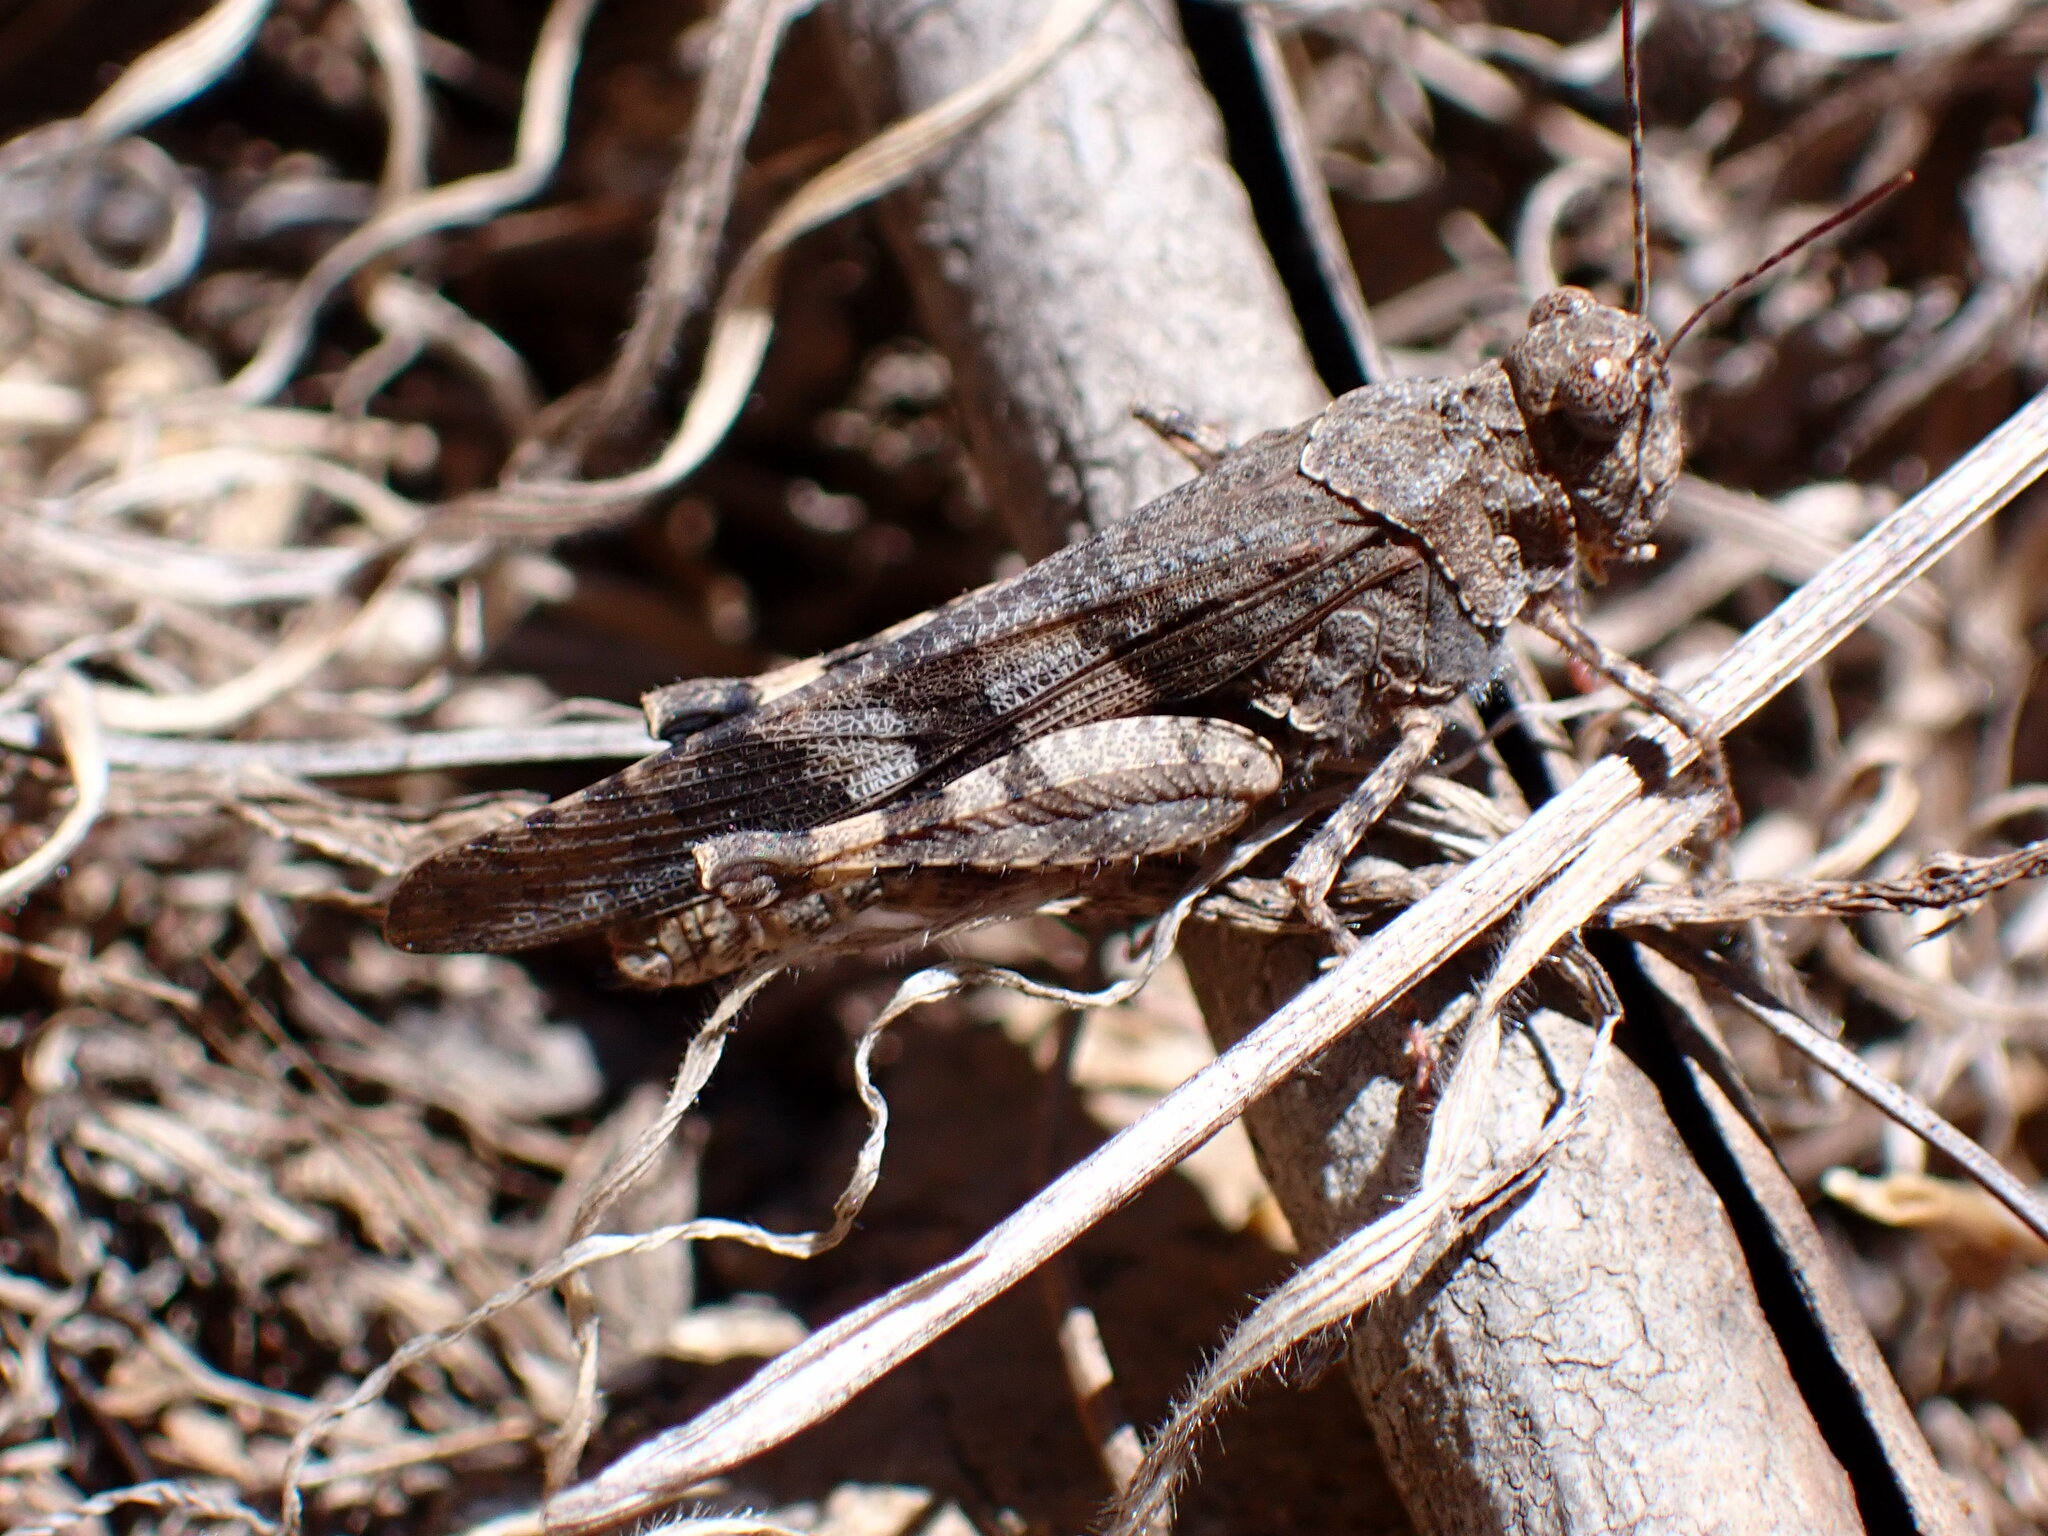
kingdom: Animalia
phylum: Arthropoda
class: Insecta
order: Orthoptera
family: Acrididae
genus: Trimerotropis
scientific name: Trimerotropis fontana
